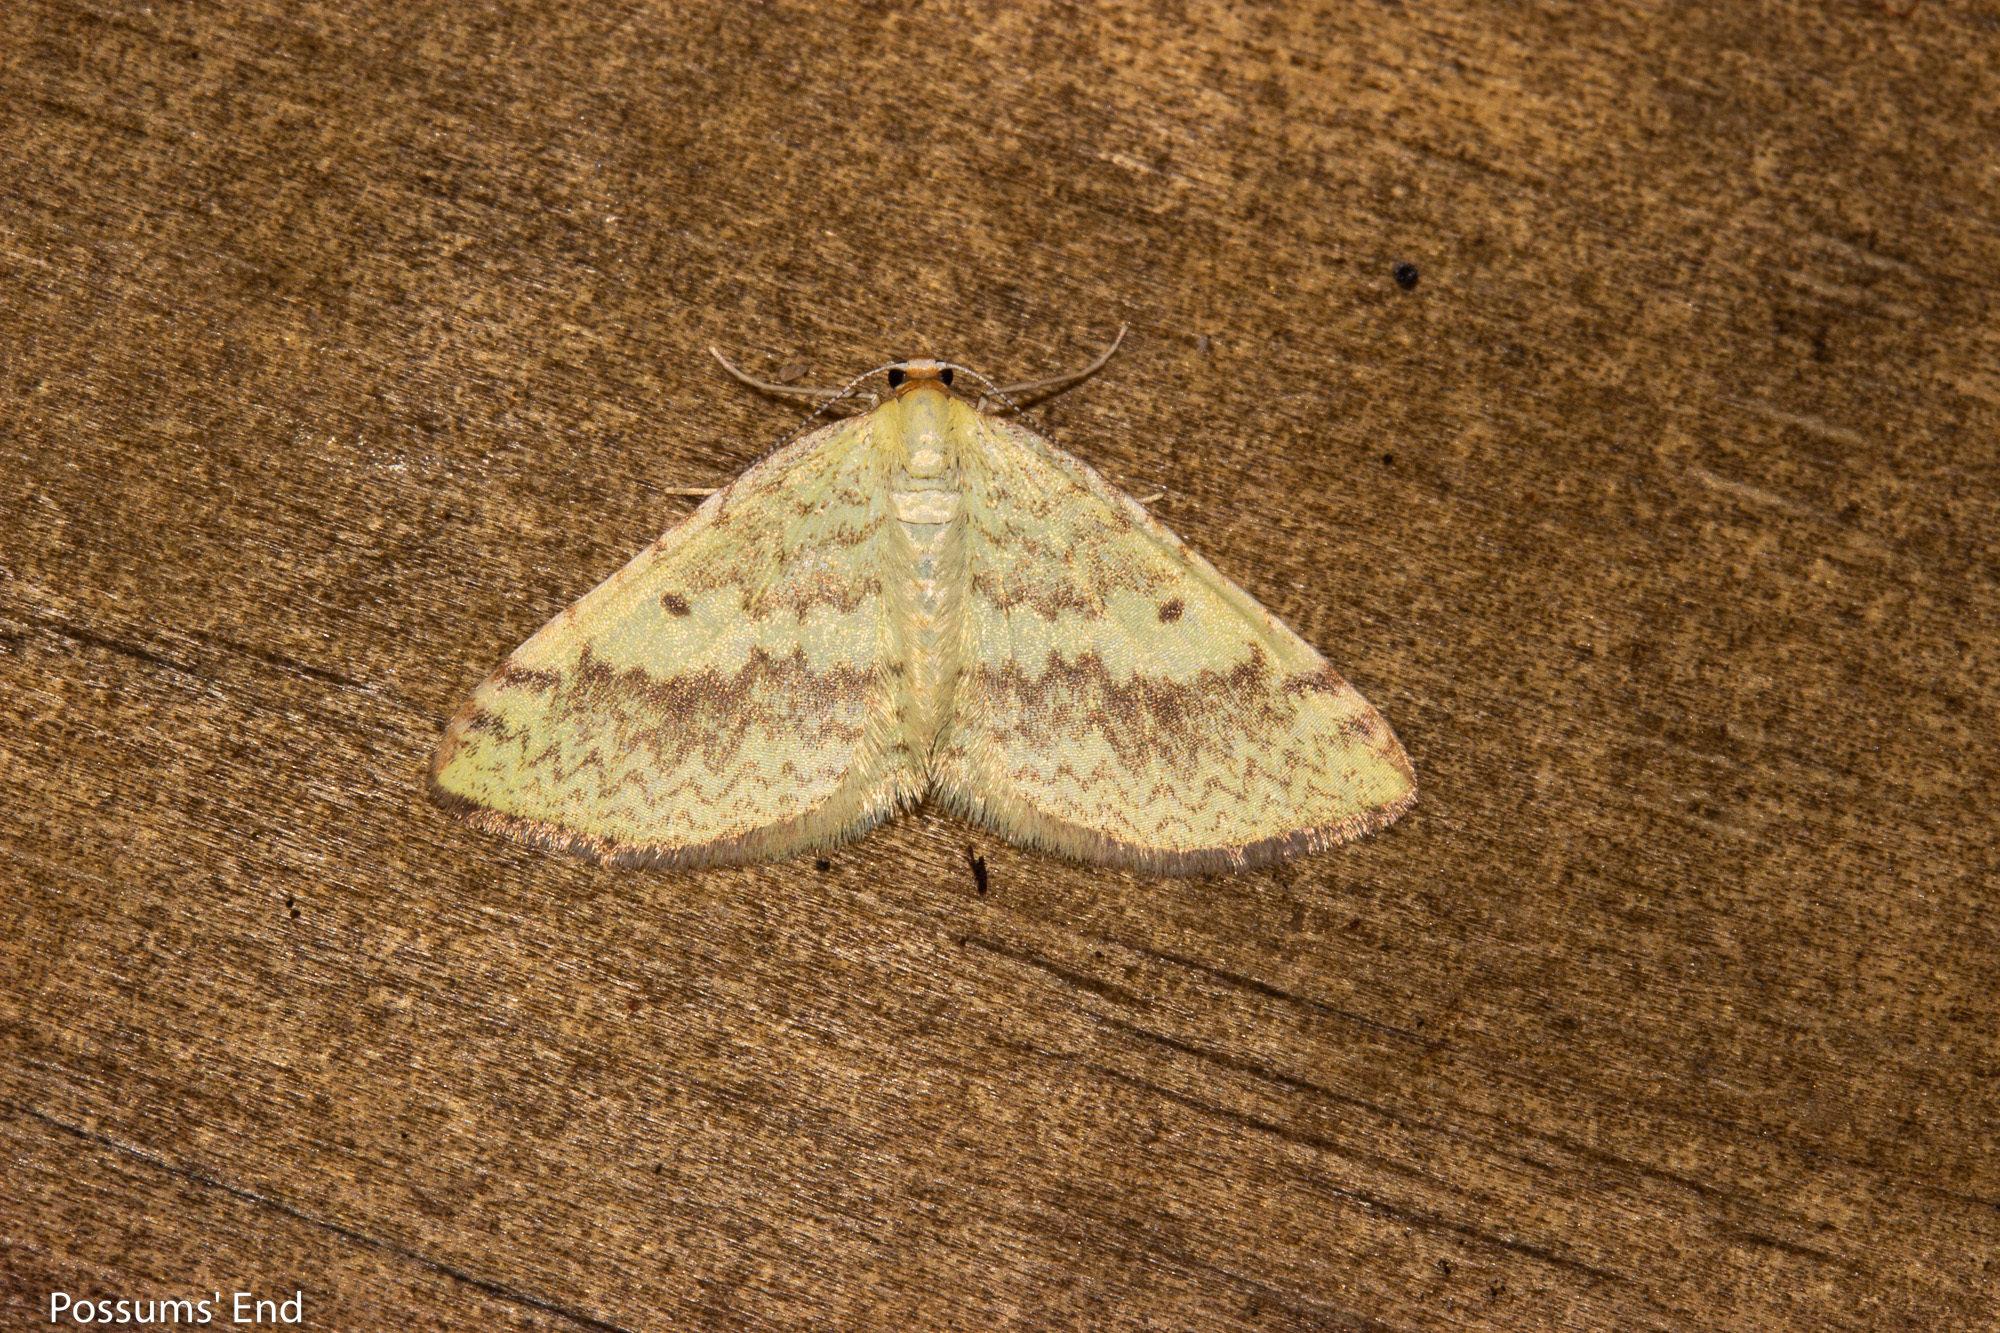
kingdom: Animalia
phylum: Arthropoda
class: Insecta
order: Lepidoptera
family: Geometridae
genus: Epiphryne
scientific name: Epiphryne undosata
